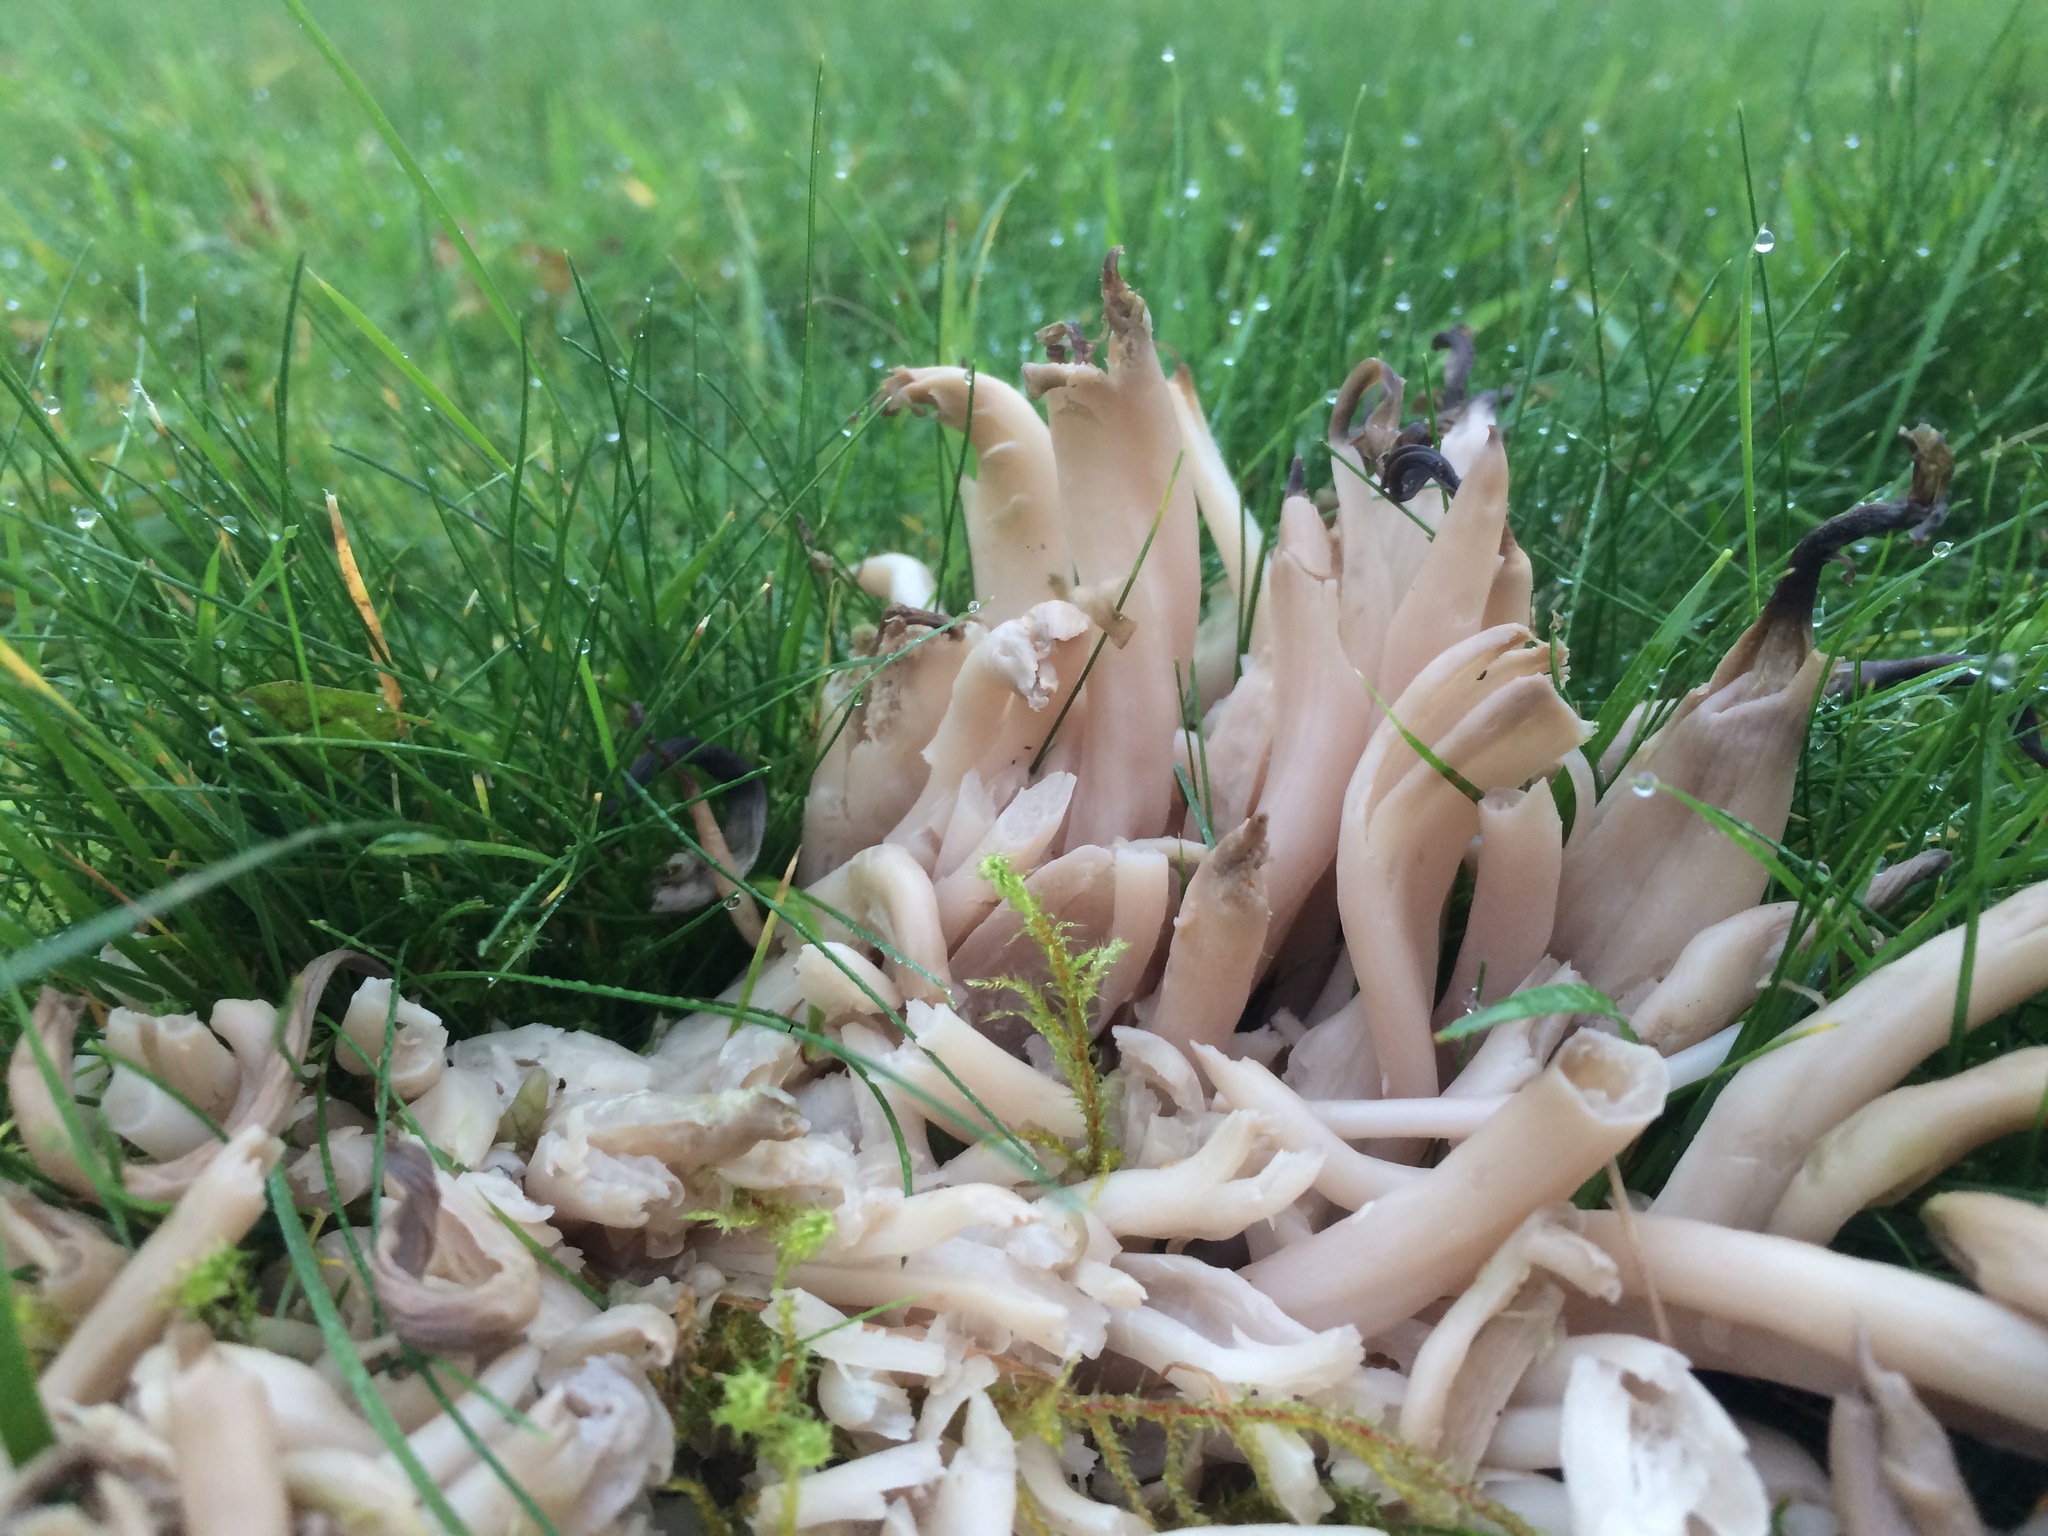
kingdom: Fungi
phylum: Basidiomycota
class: Agaricomycetes
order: Agaricales
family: Clavariaceae
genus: Clavaria
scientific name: Clavaria fumosa
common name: Smoky spindles
